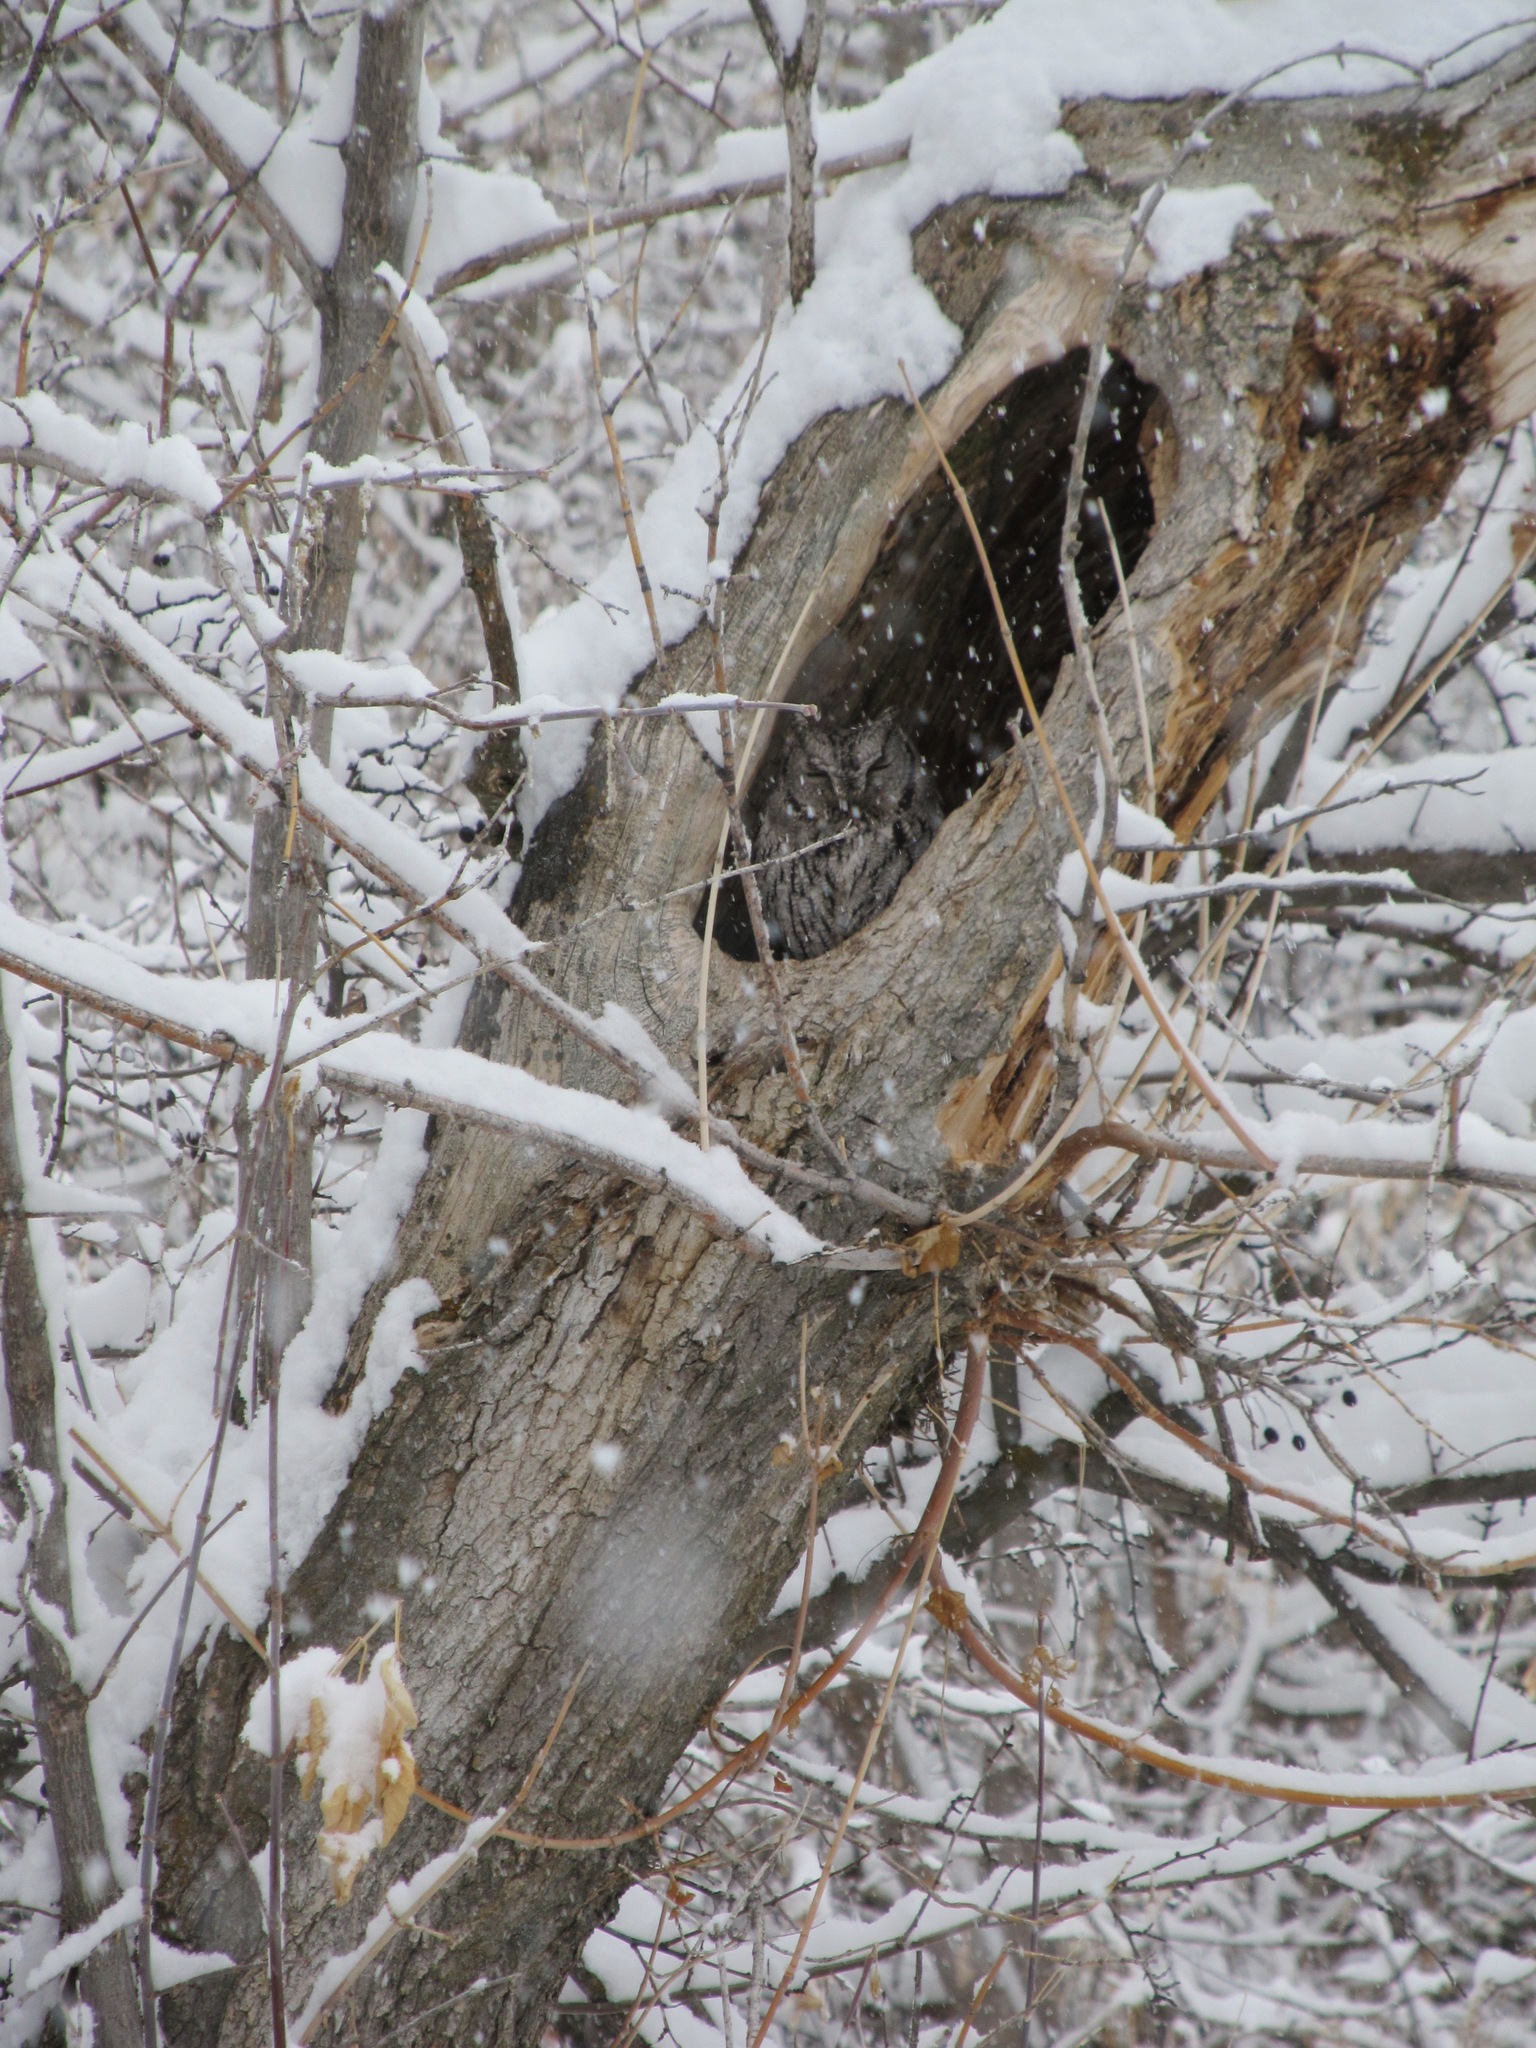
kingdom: Animalia
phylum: Chordata
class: Aves
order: Strigiformes
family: Strigidae
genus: Megascops
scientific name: Megascops kennicottii
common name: Western screech-owl
